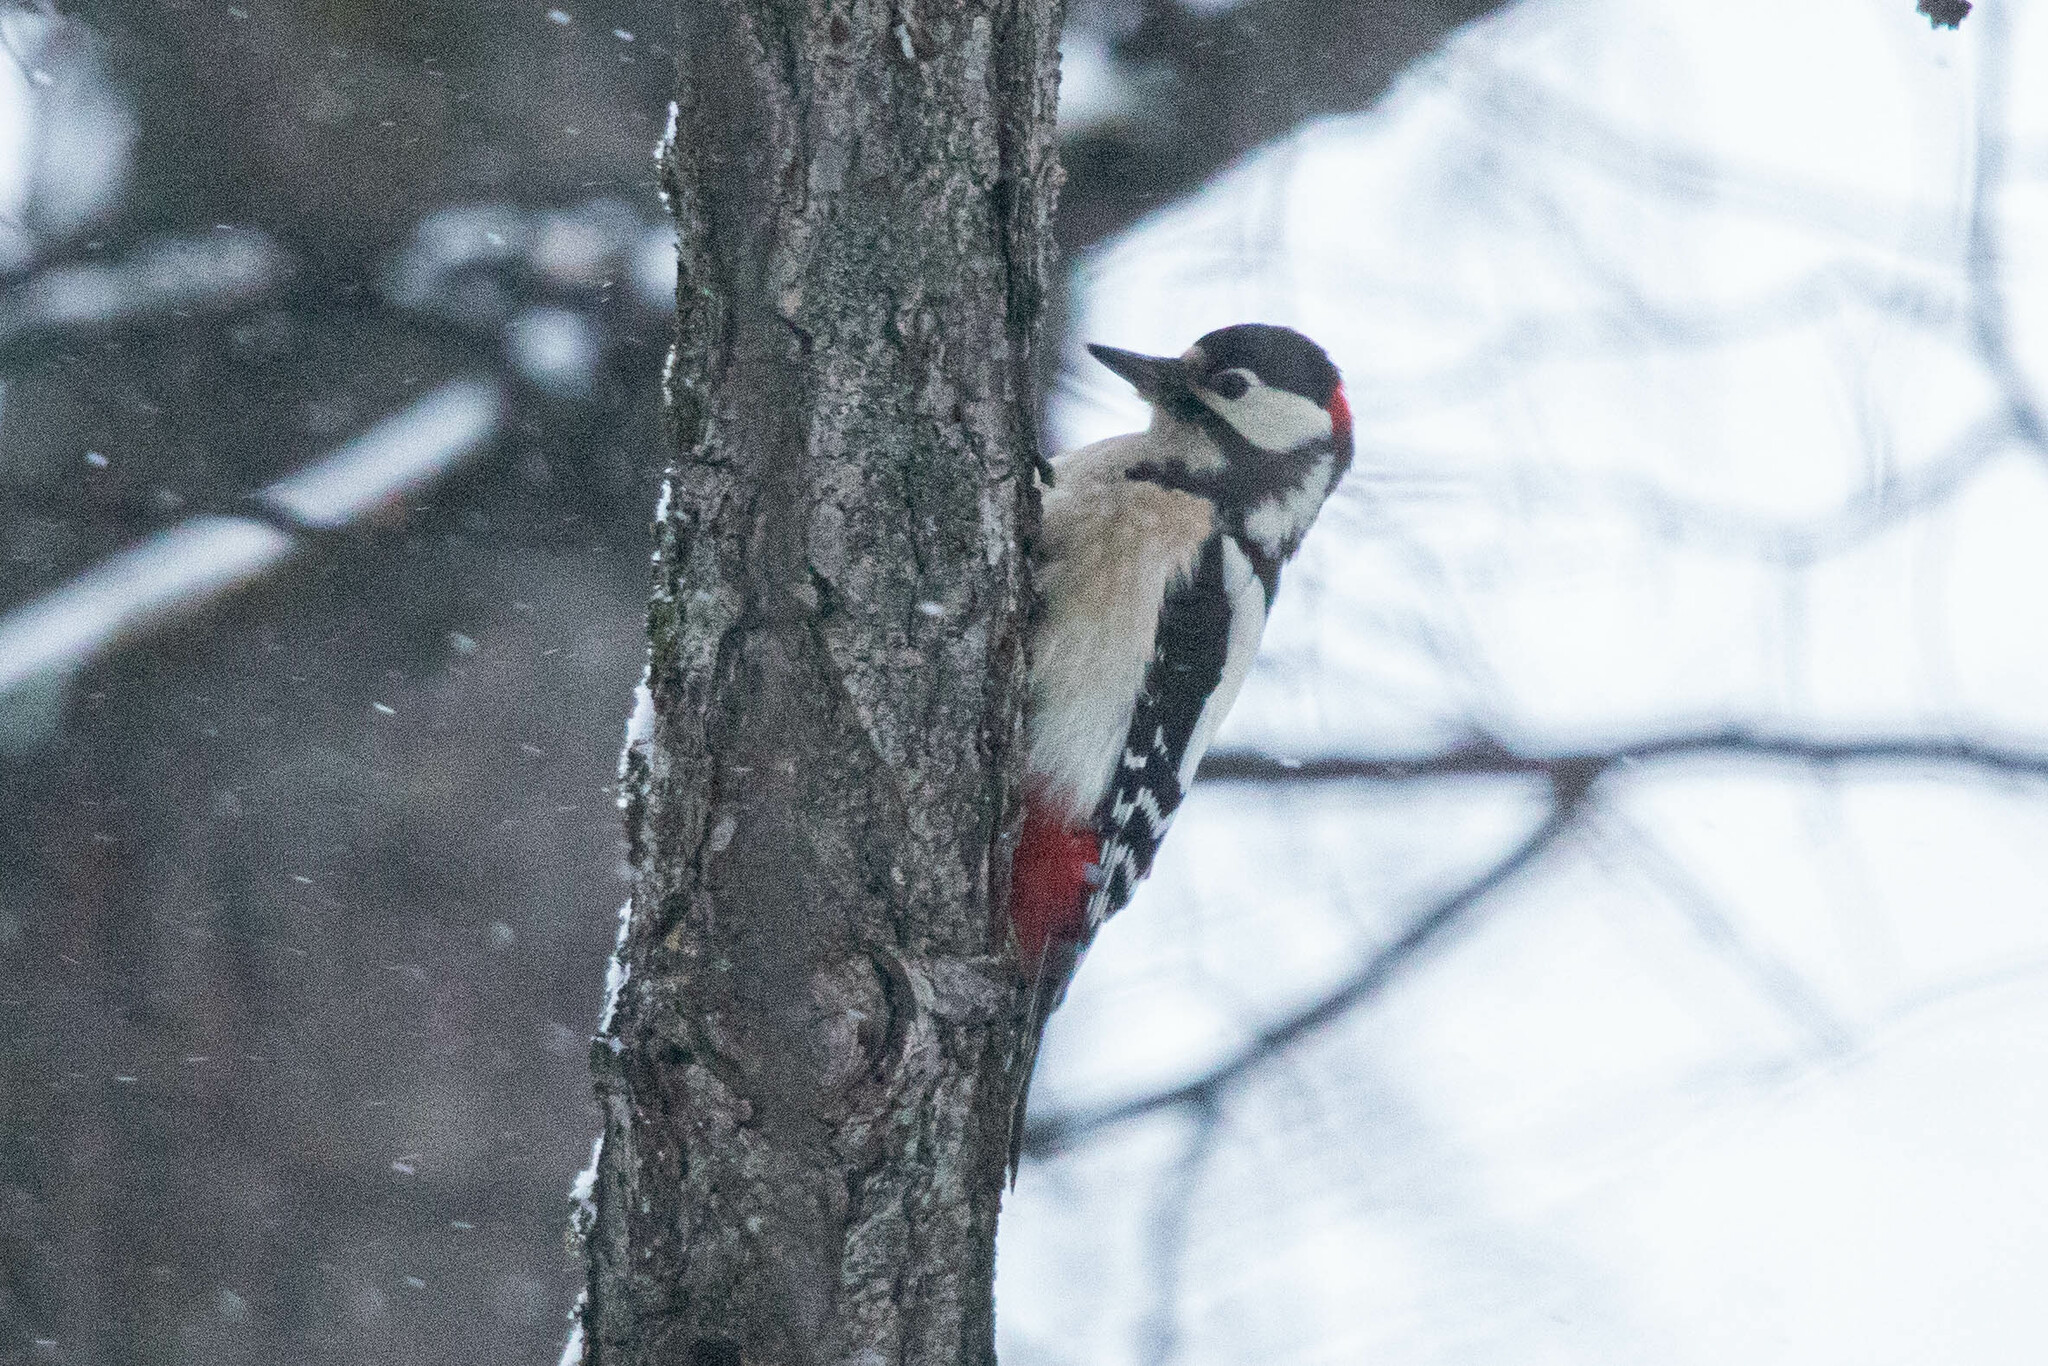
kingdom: Animalia
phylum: Chordata
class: Aves
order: Piciformes
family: Picidae
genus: Dendrocopos
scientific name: Dendrocopos major
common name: Great spotted woodpecker
